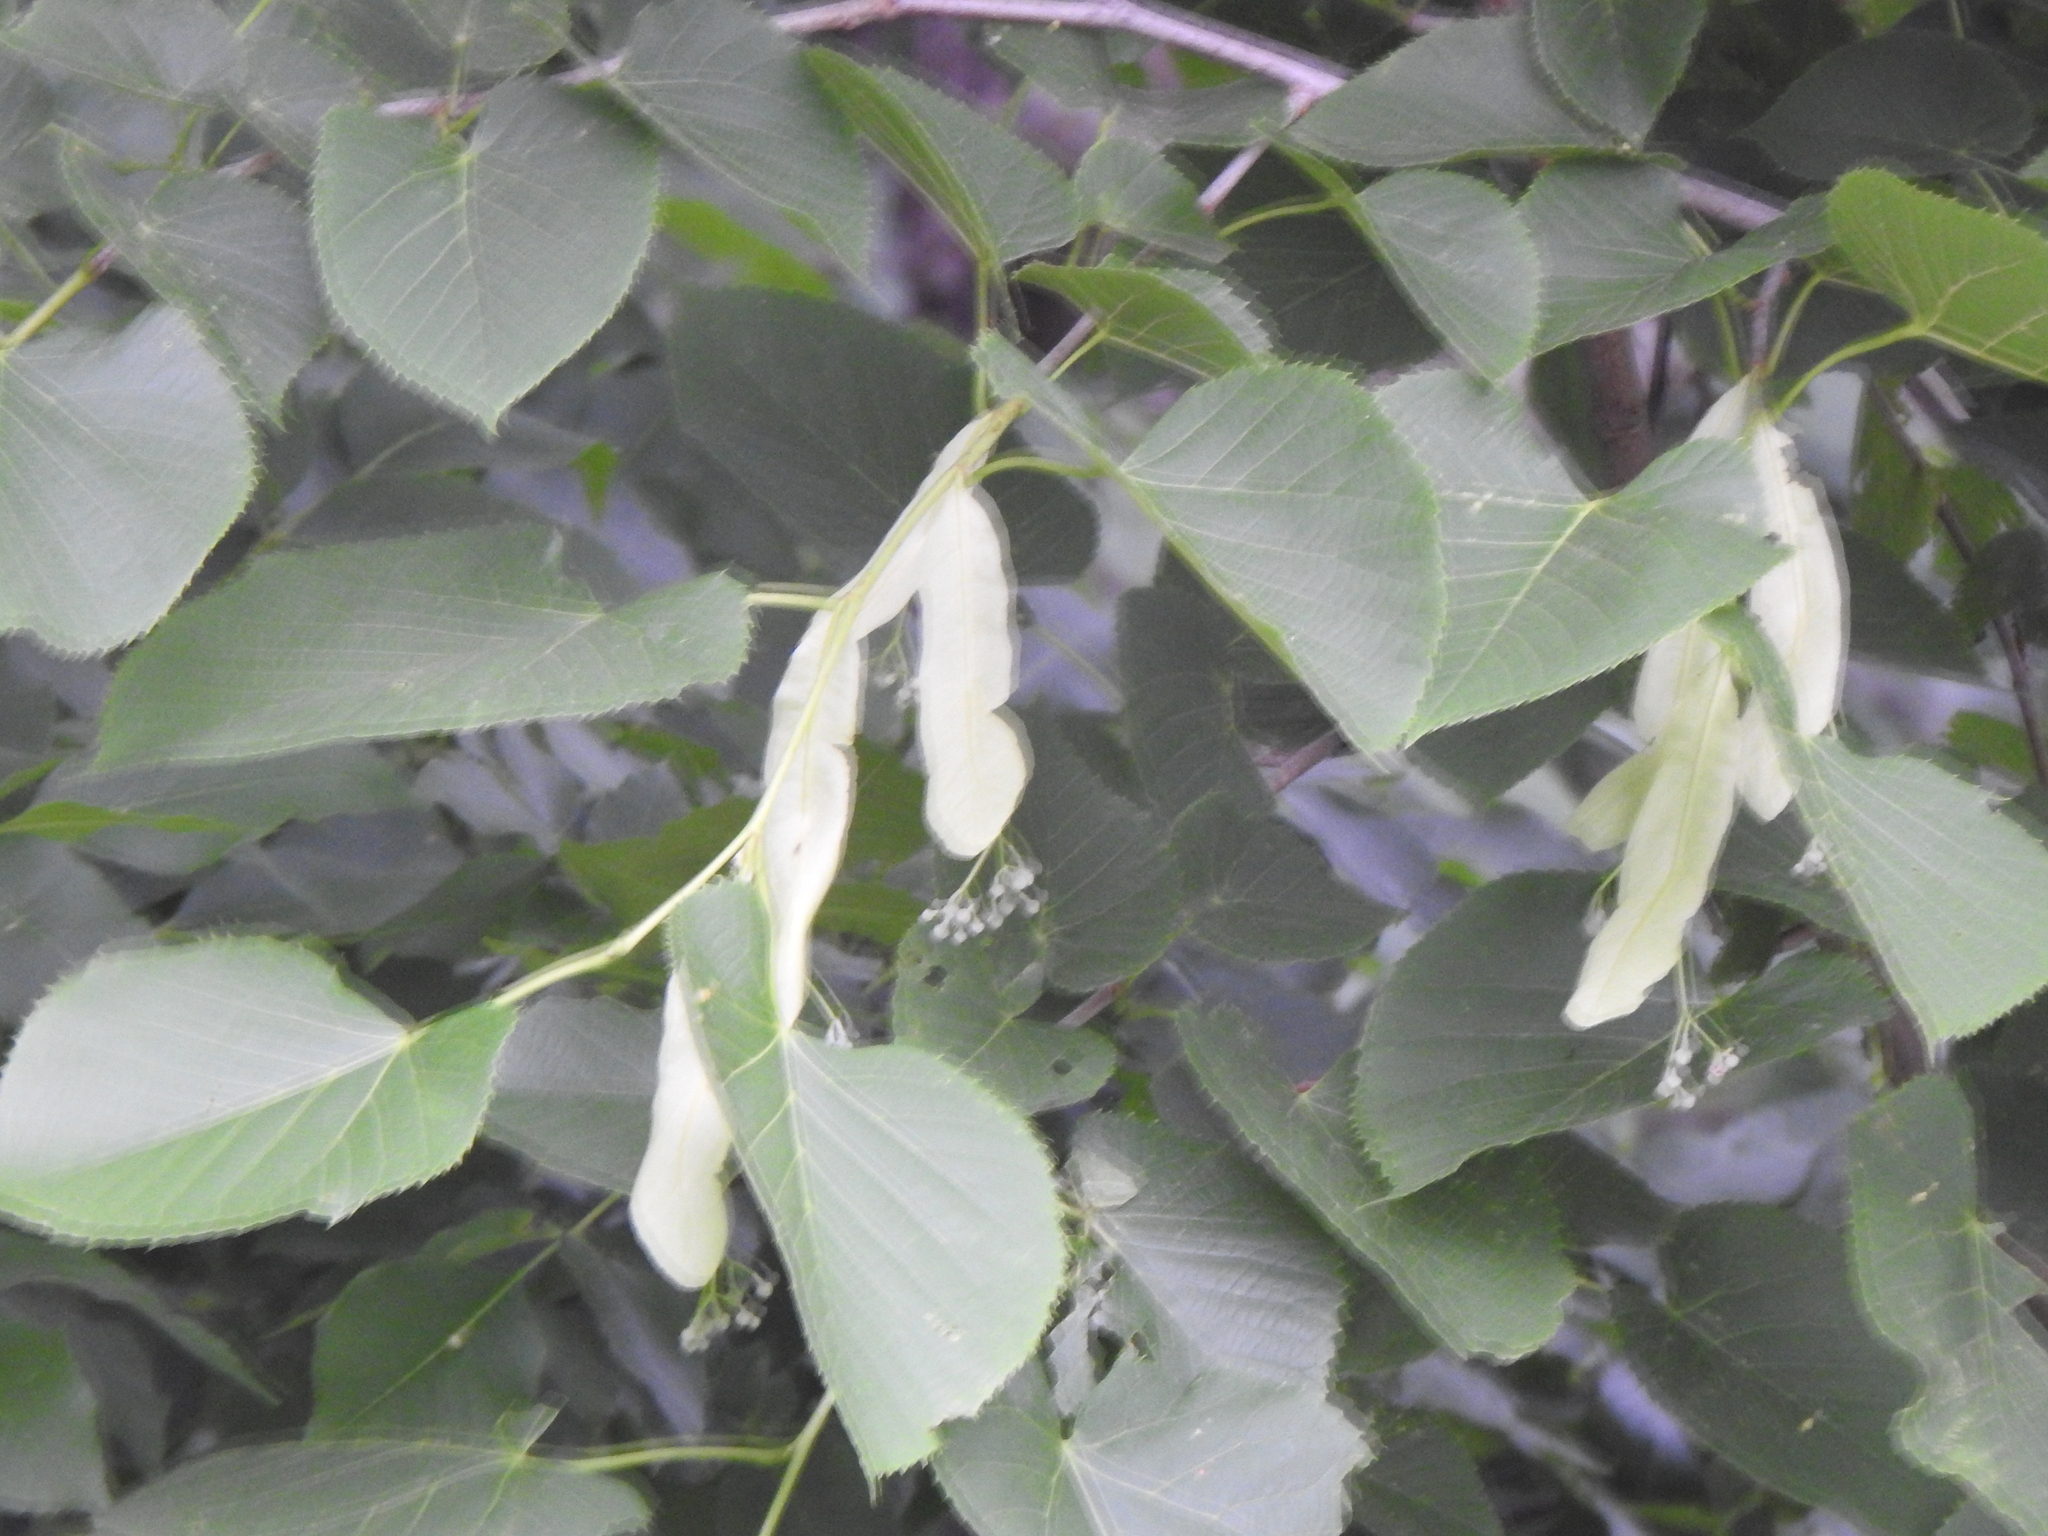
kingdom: Plantae
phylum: Tracheophyta
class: Magnoliopsida
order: Malvales
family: Malvaceae
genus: Tilia
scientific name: Tilia americana
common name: Basswood
